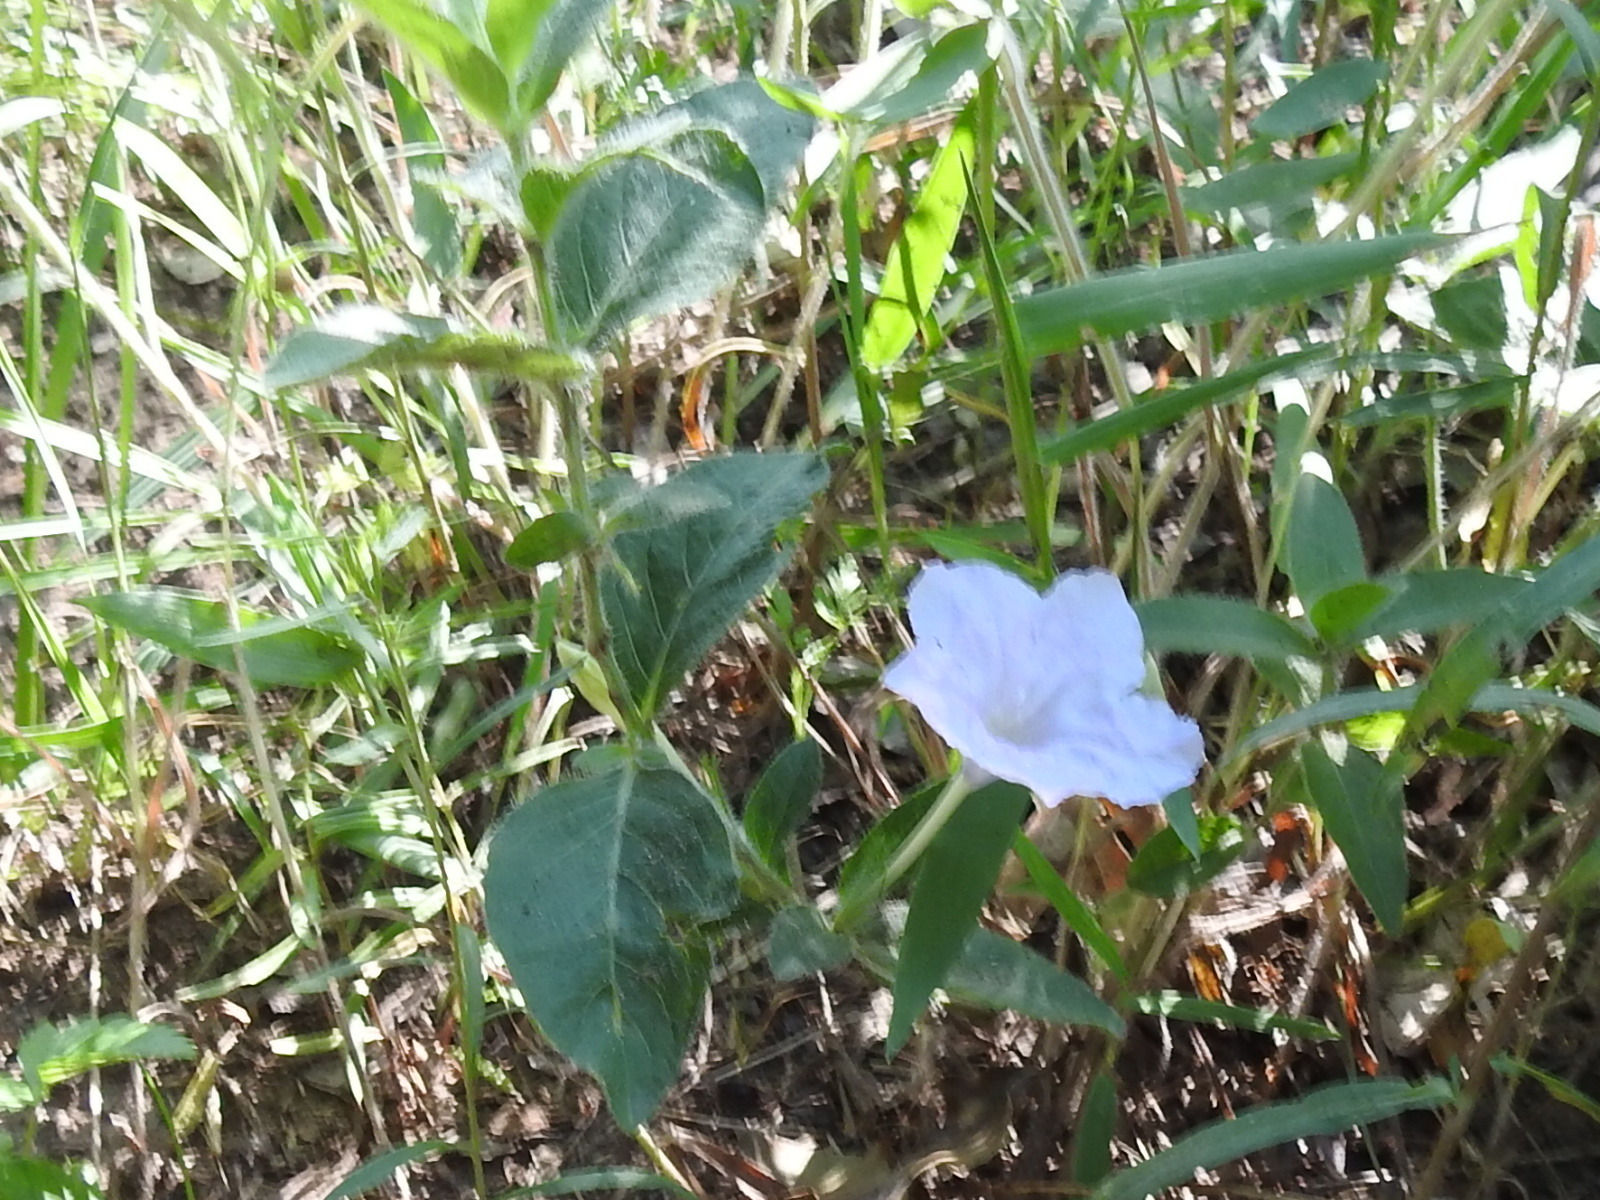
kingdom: Plantae
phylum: Tracheophyta
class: Magnoliopsida
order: Lamiales
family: Acanthaceae
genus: Ruellia
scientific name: Ruellia humilis
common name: Fringe-leaf ruellia
